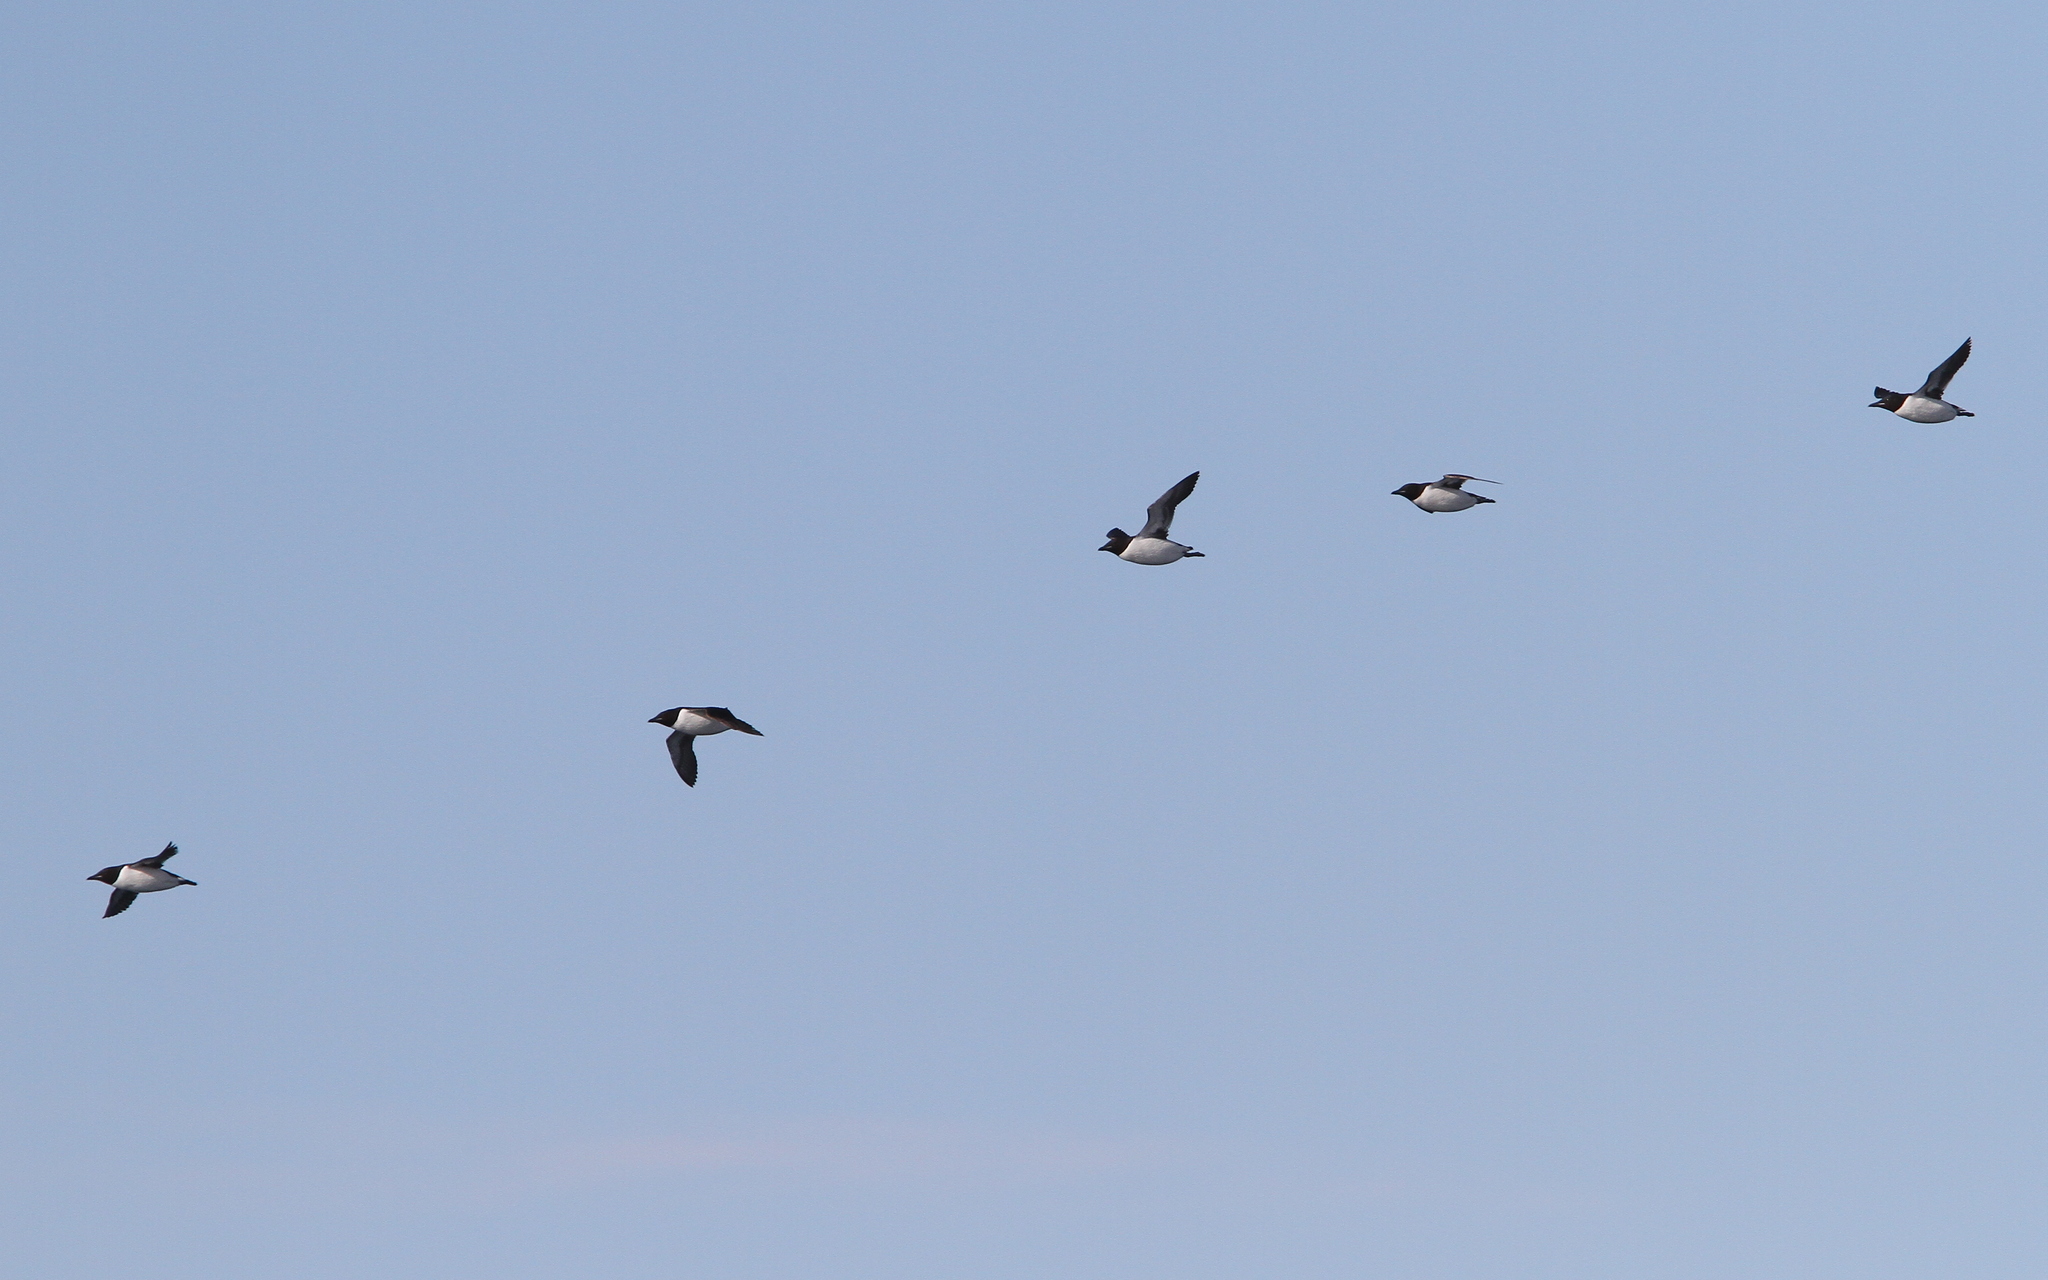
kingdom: Animalia
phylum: Chordata
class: Aves
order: Charadriiformes
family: Alcidae
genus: Uria
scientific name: Uria lomvia
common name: Thick-billed murre
